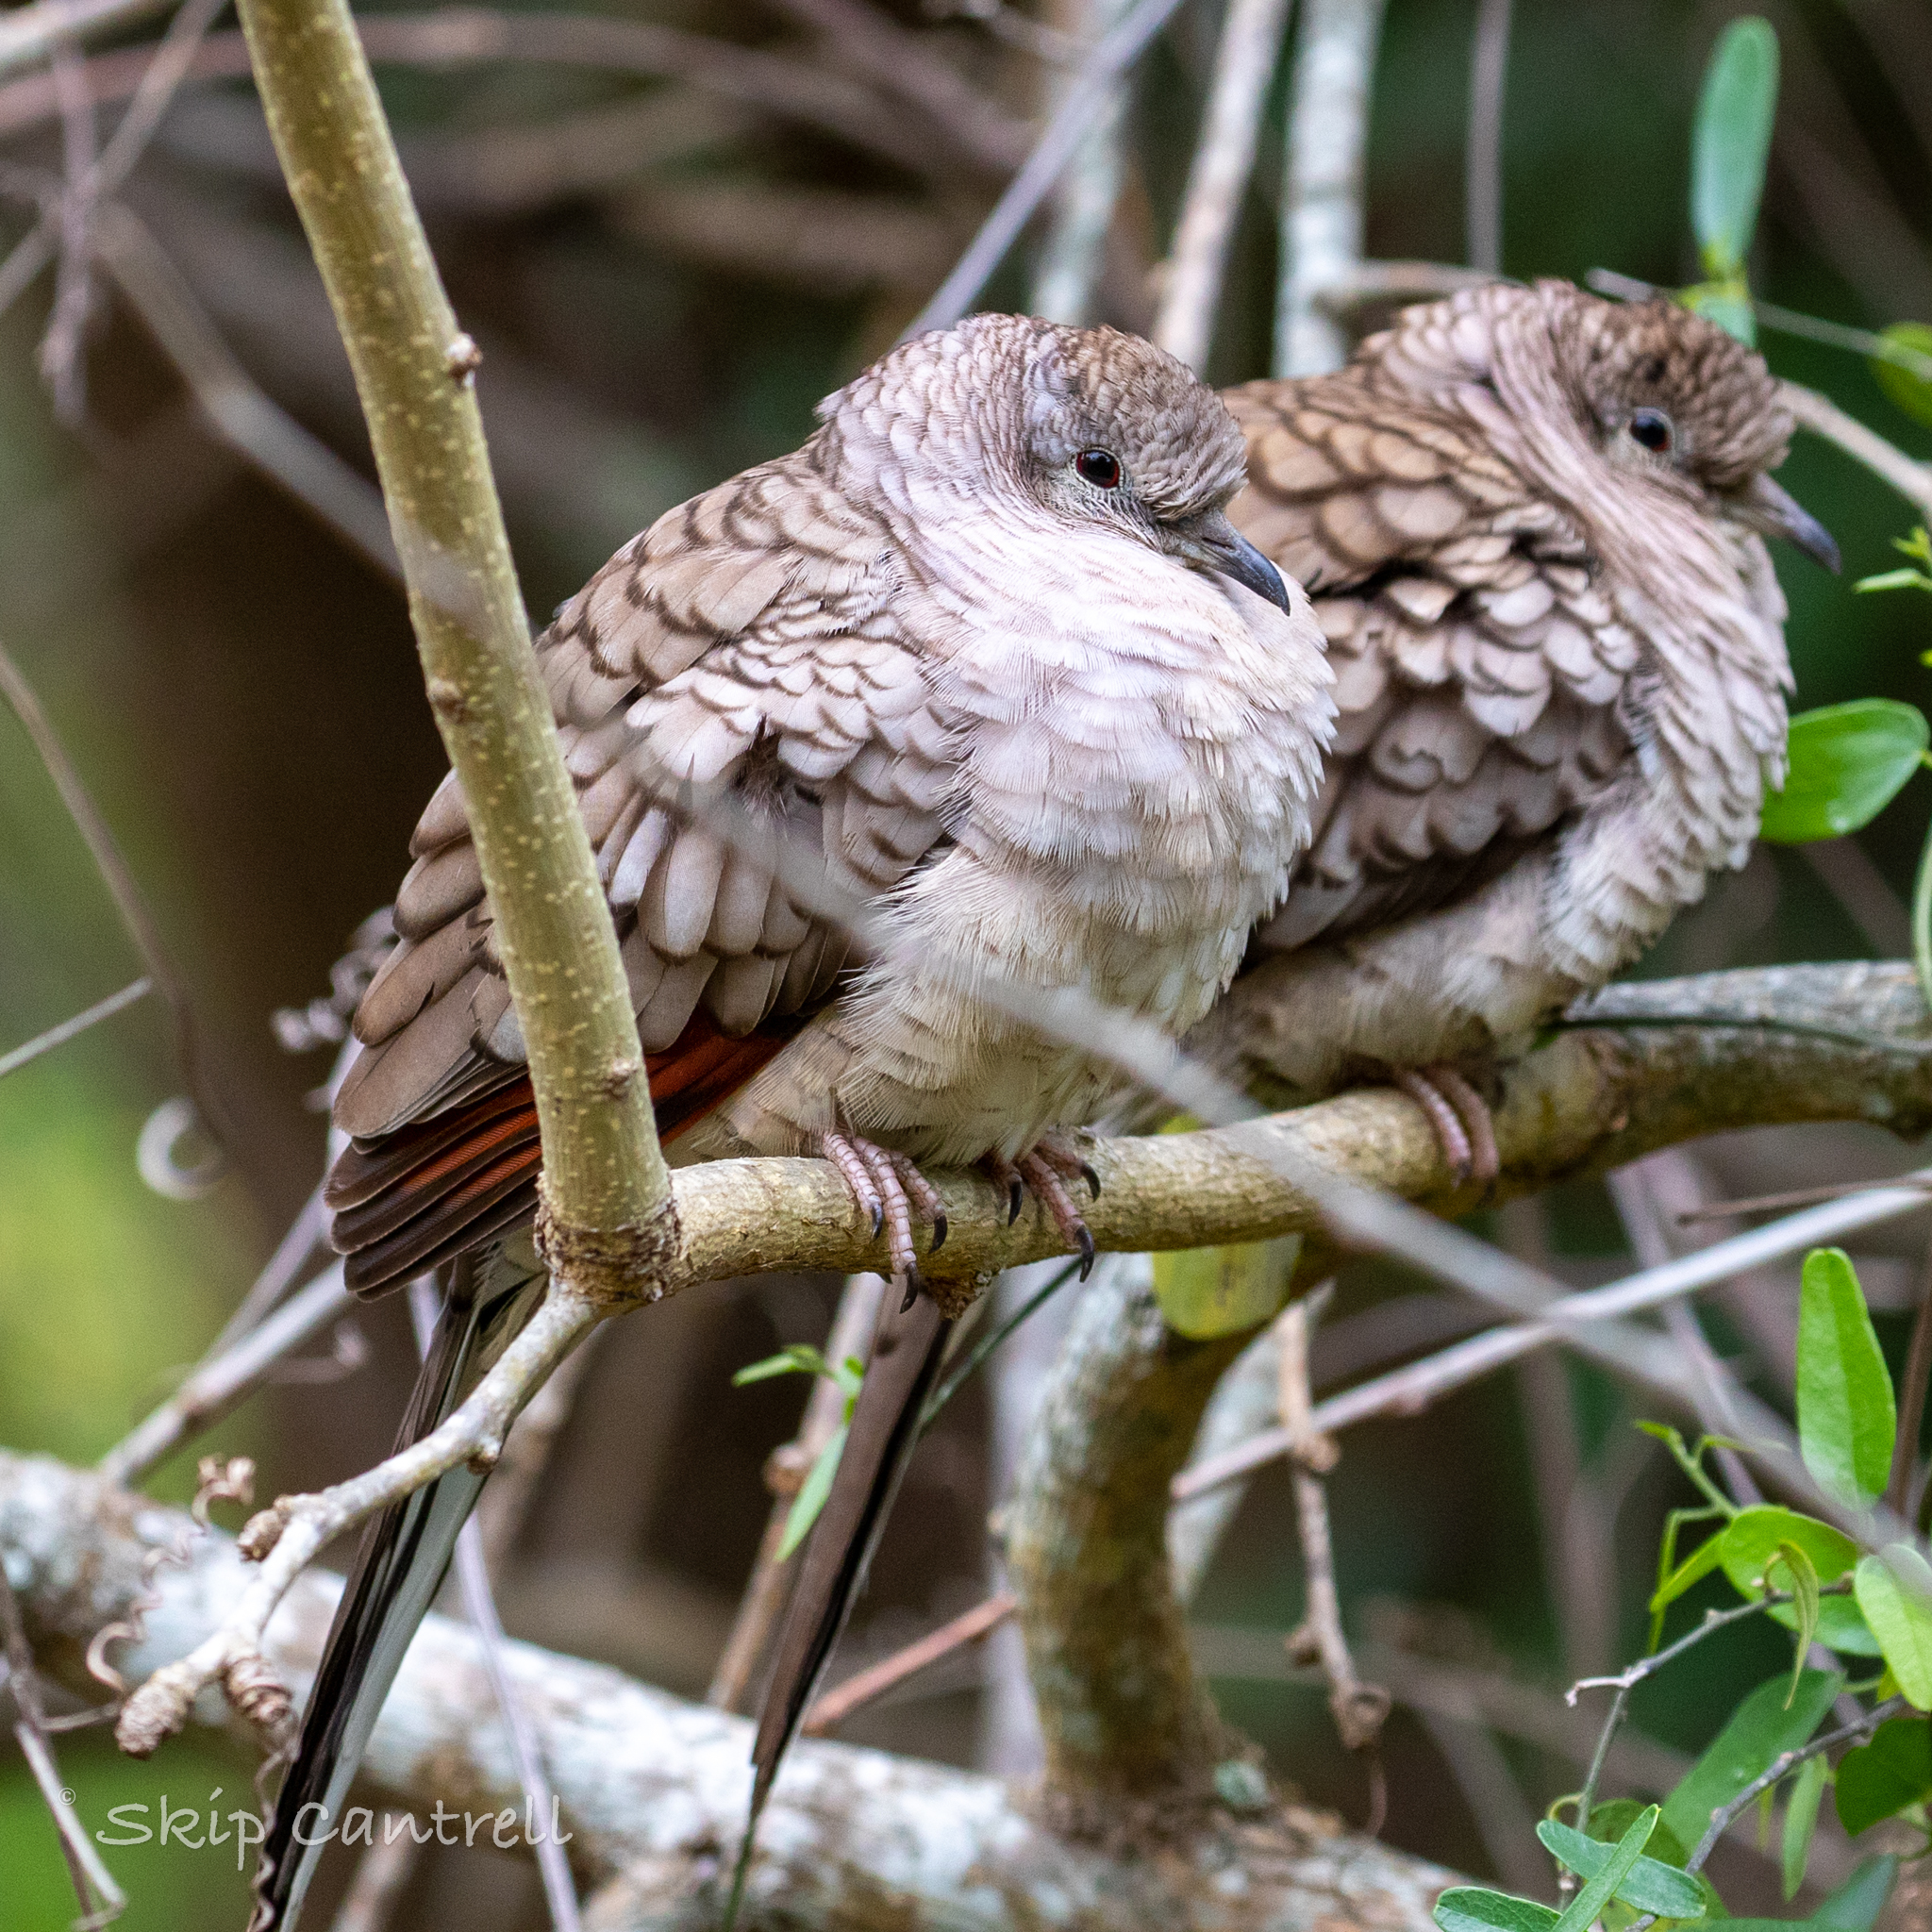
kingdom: Animalia
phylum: Chordata
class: Aves
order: Columbiformes
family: Columbidae
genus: Columbina
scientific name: Columbina inca
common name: Inca dove
